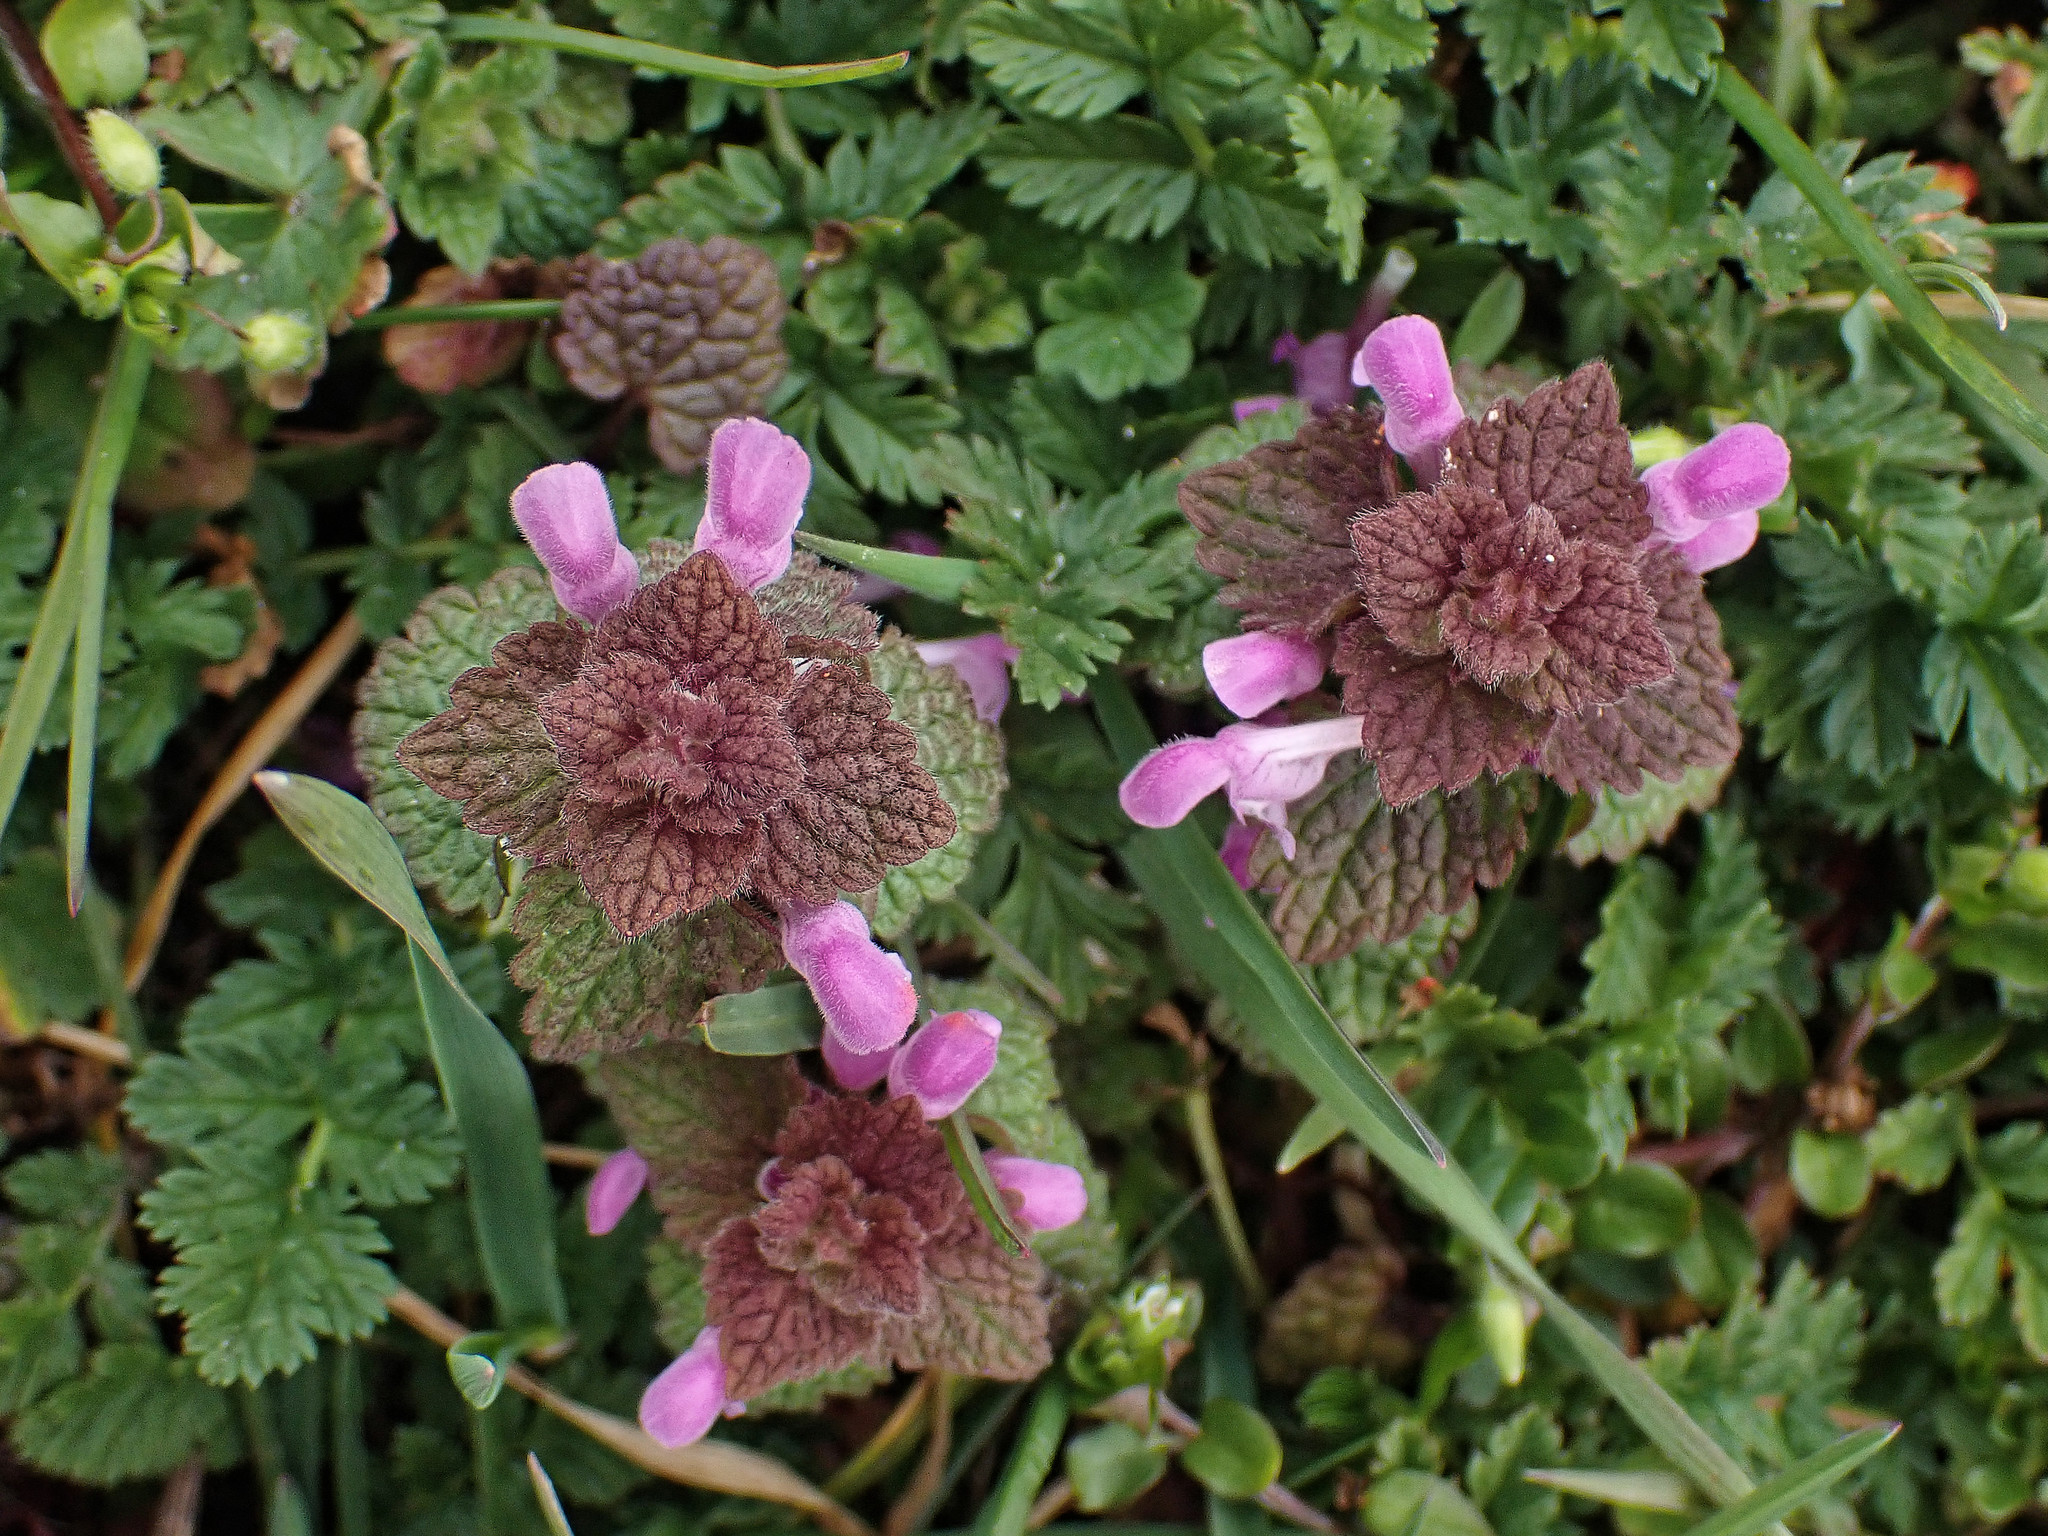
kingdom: Plantae
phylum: Tracheophyta
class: Magnoliopsida
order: Lamiales
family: Lamiaceae
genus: Lamium
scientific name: Lamium purpureum
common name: Red dead-nettle
